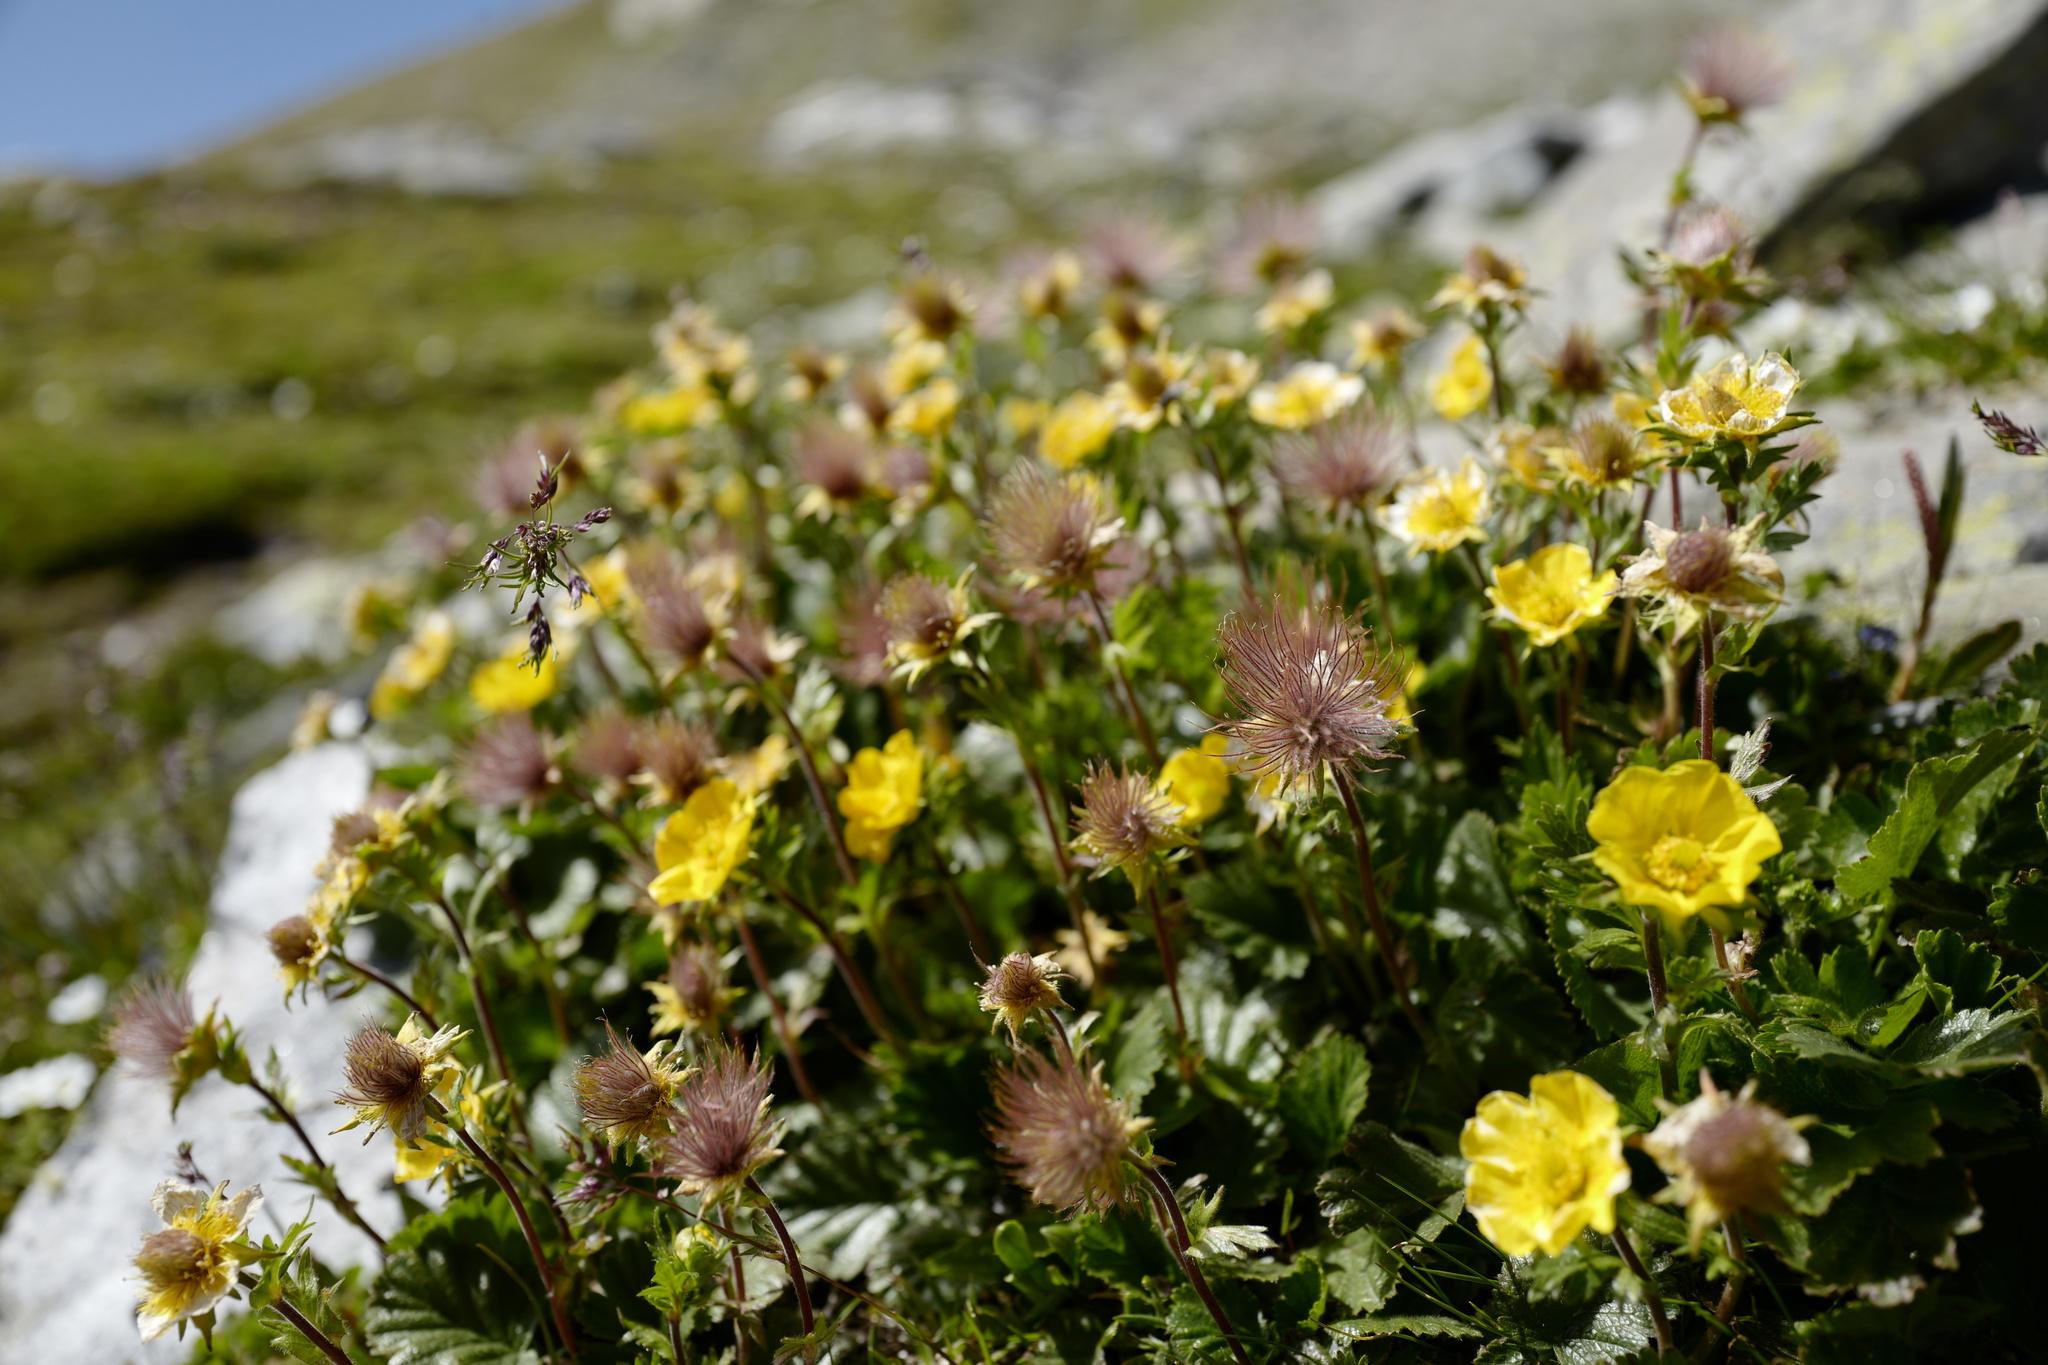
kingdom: Plantae
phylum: Tracheophyta
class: Magnoliopsida
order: Rosales
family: Rosaceae
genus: Geum
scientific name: Geum montanum
